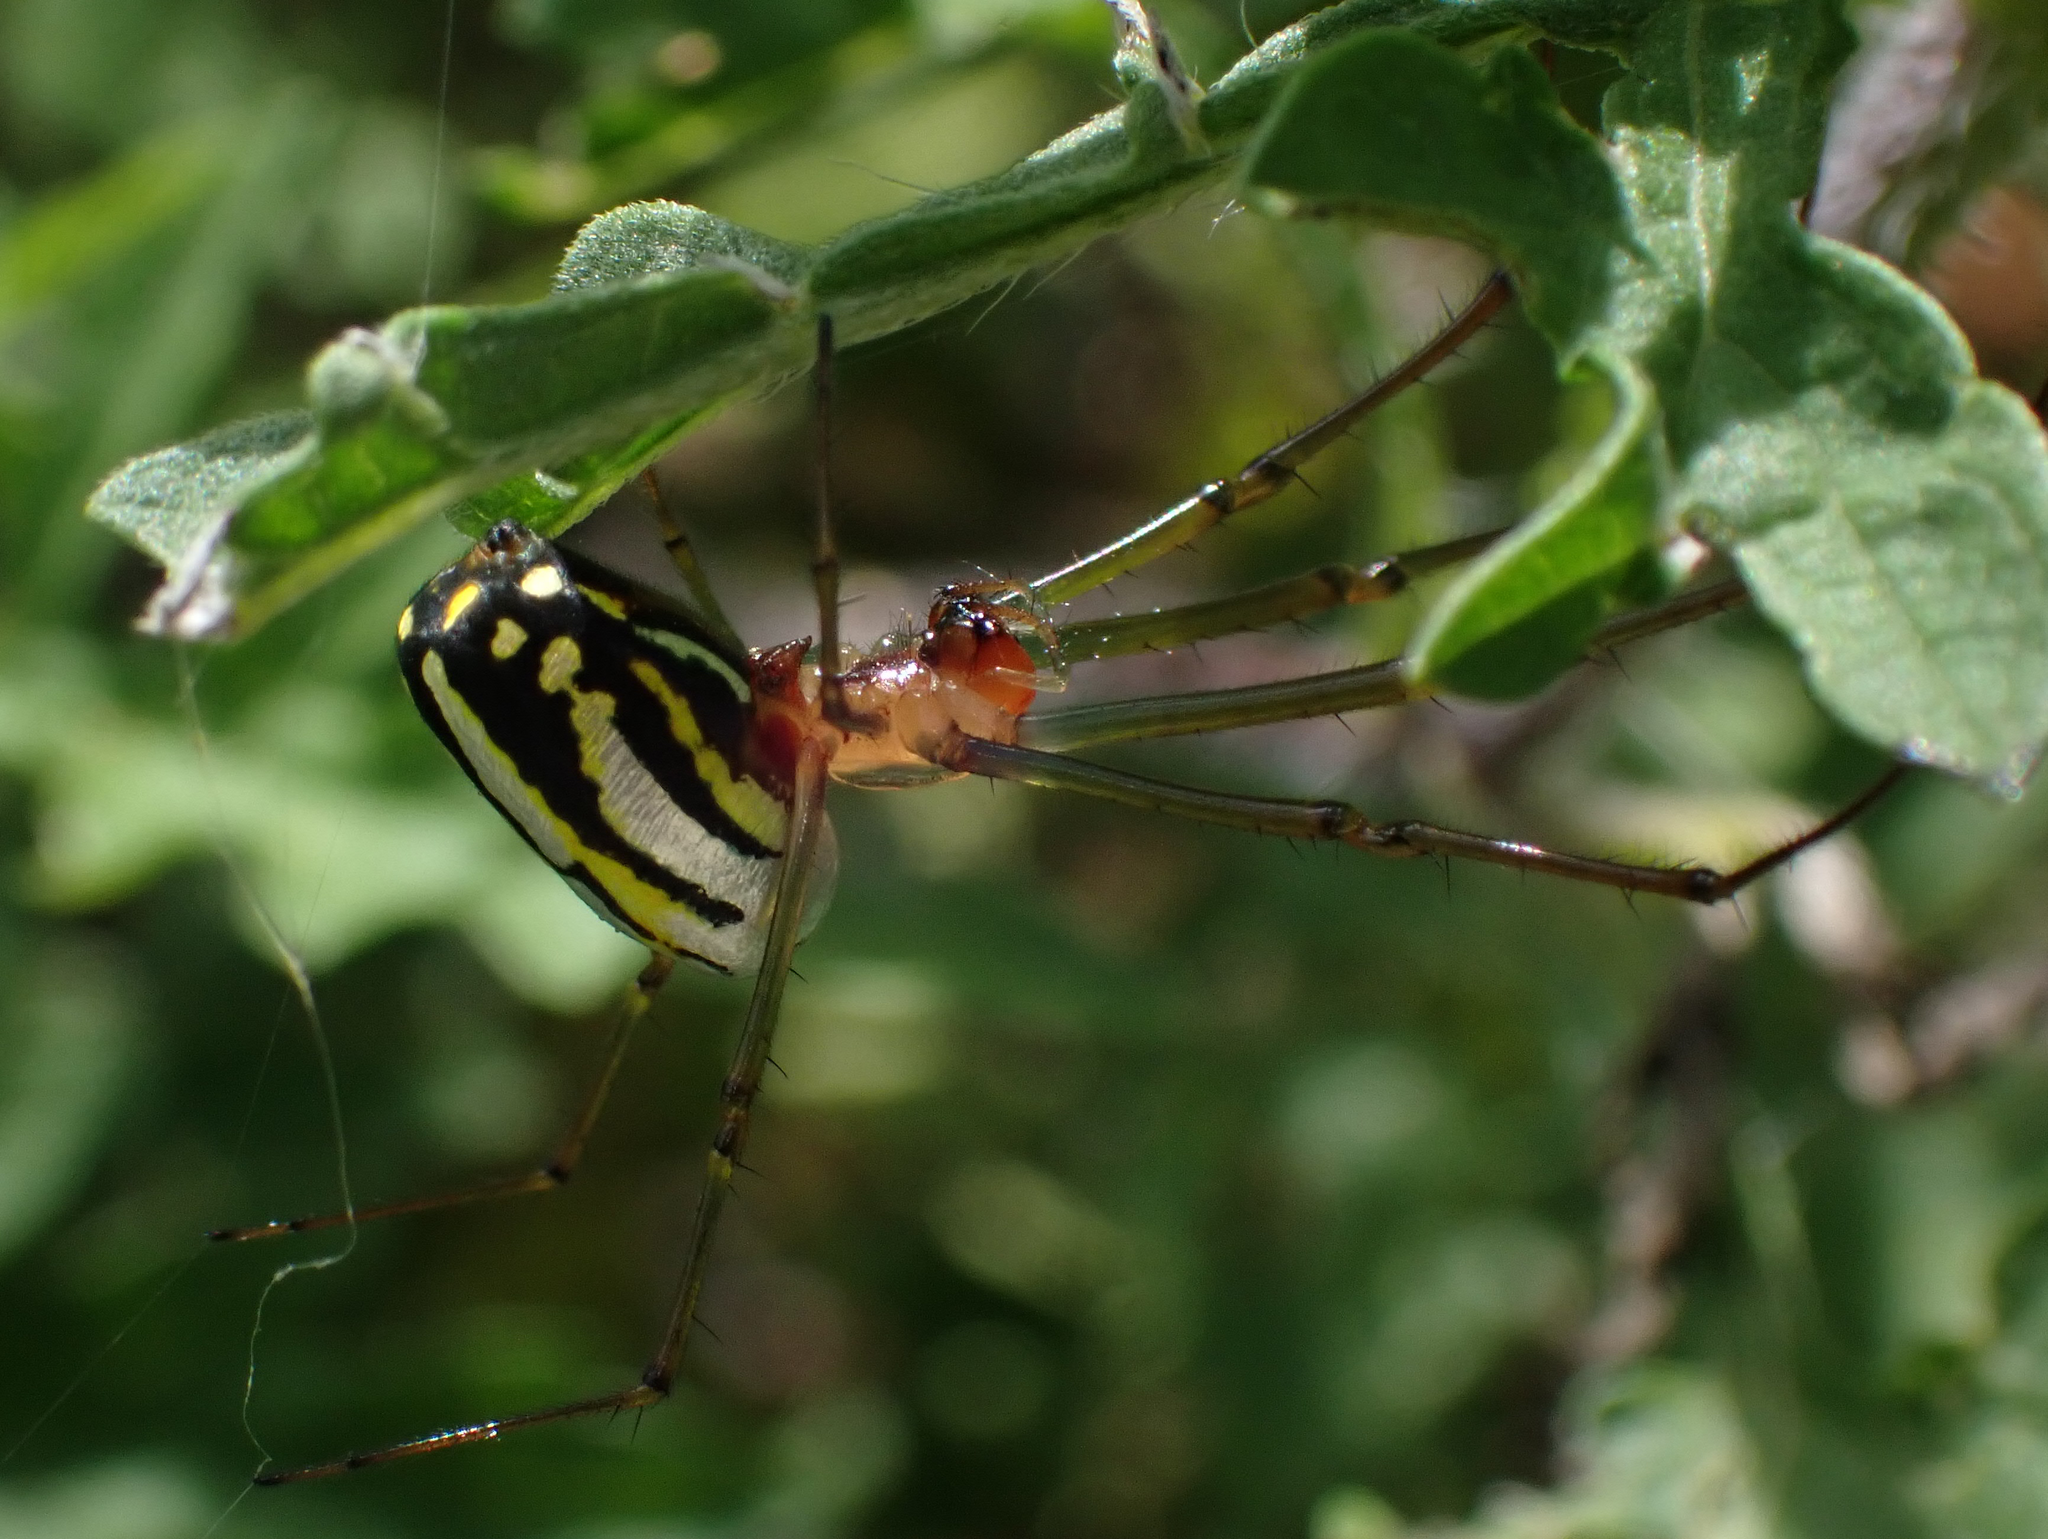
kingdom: Animalia
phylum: Arthropoda
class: Arachnida
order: Araneae
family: Tetragnathidae
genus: Leucauge
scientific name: Leucauge argyra
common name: Longjawed orb weavers
